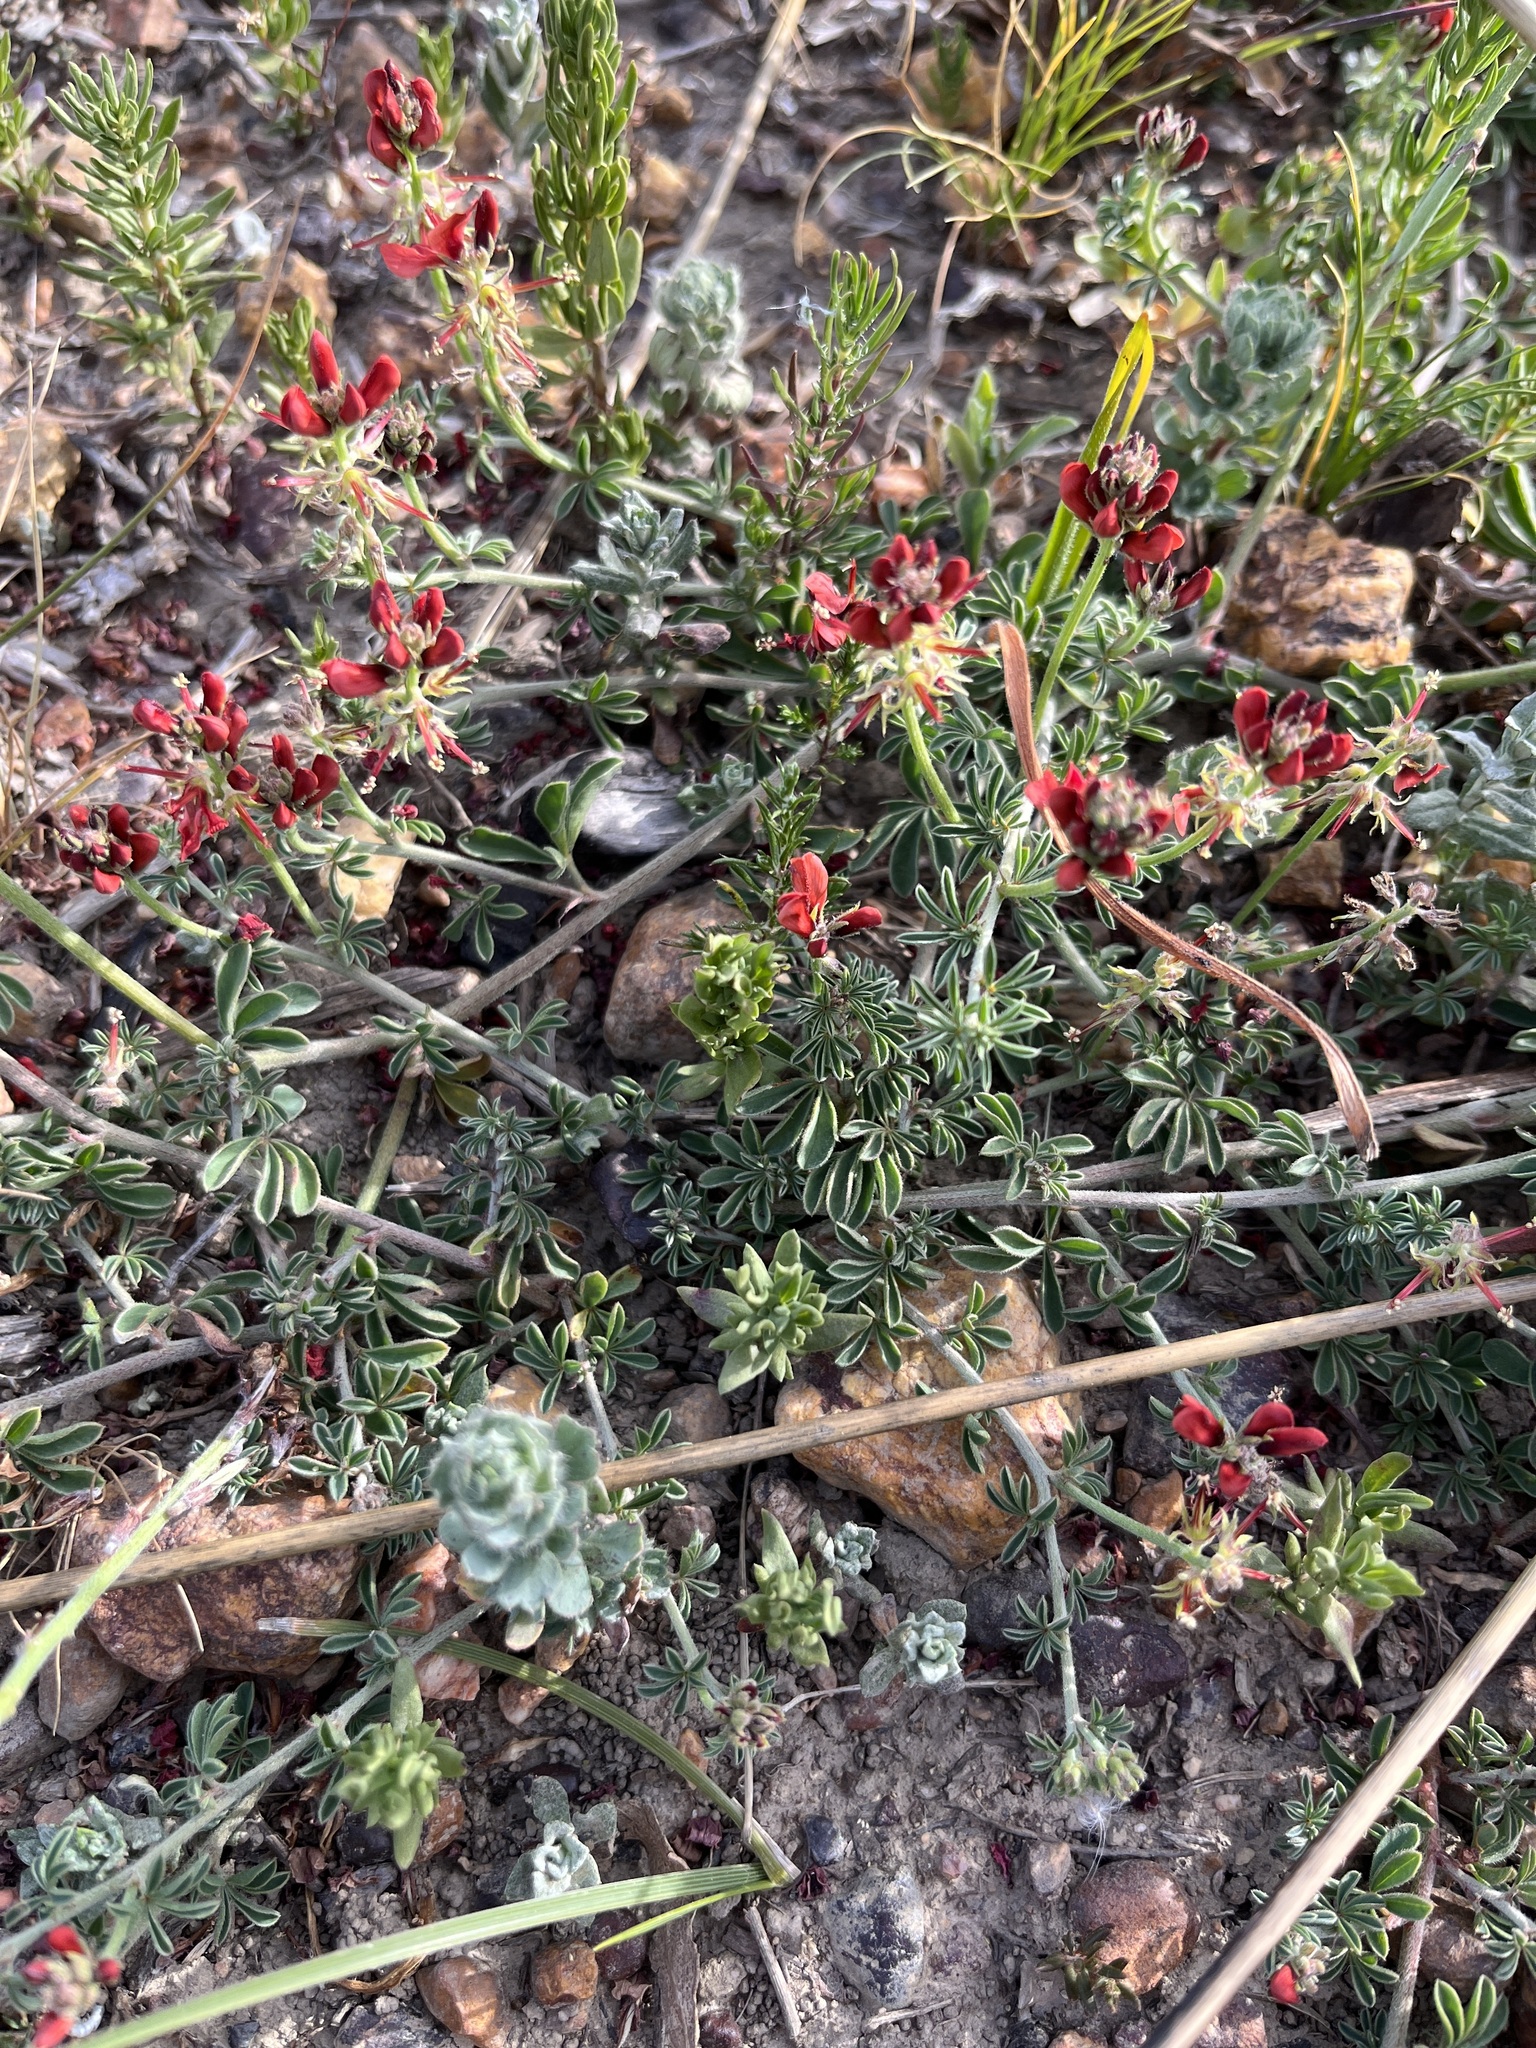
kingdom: Plantae
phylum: Tracheophyta
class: Magnoliopsida
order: Fabales
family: Fabaceae
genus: Indigofera
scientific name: Indigofera digitata
